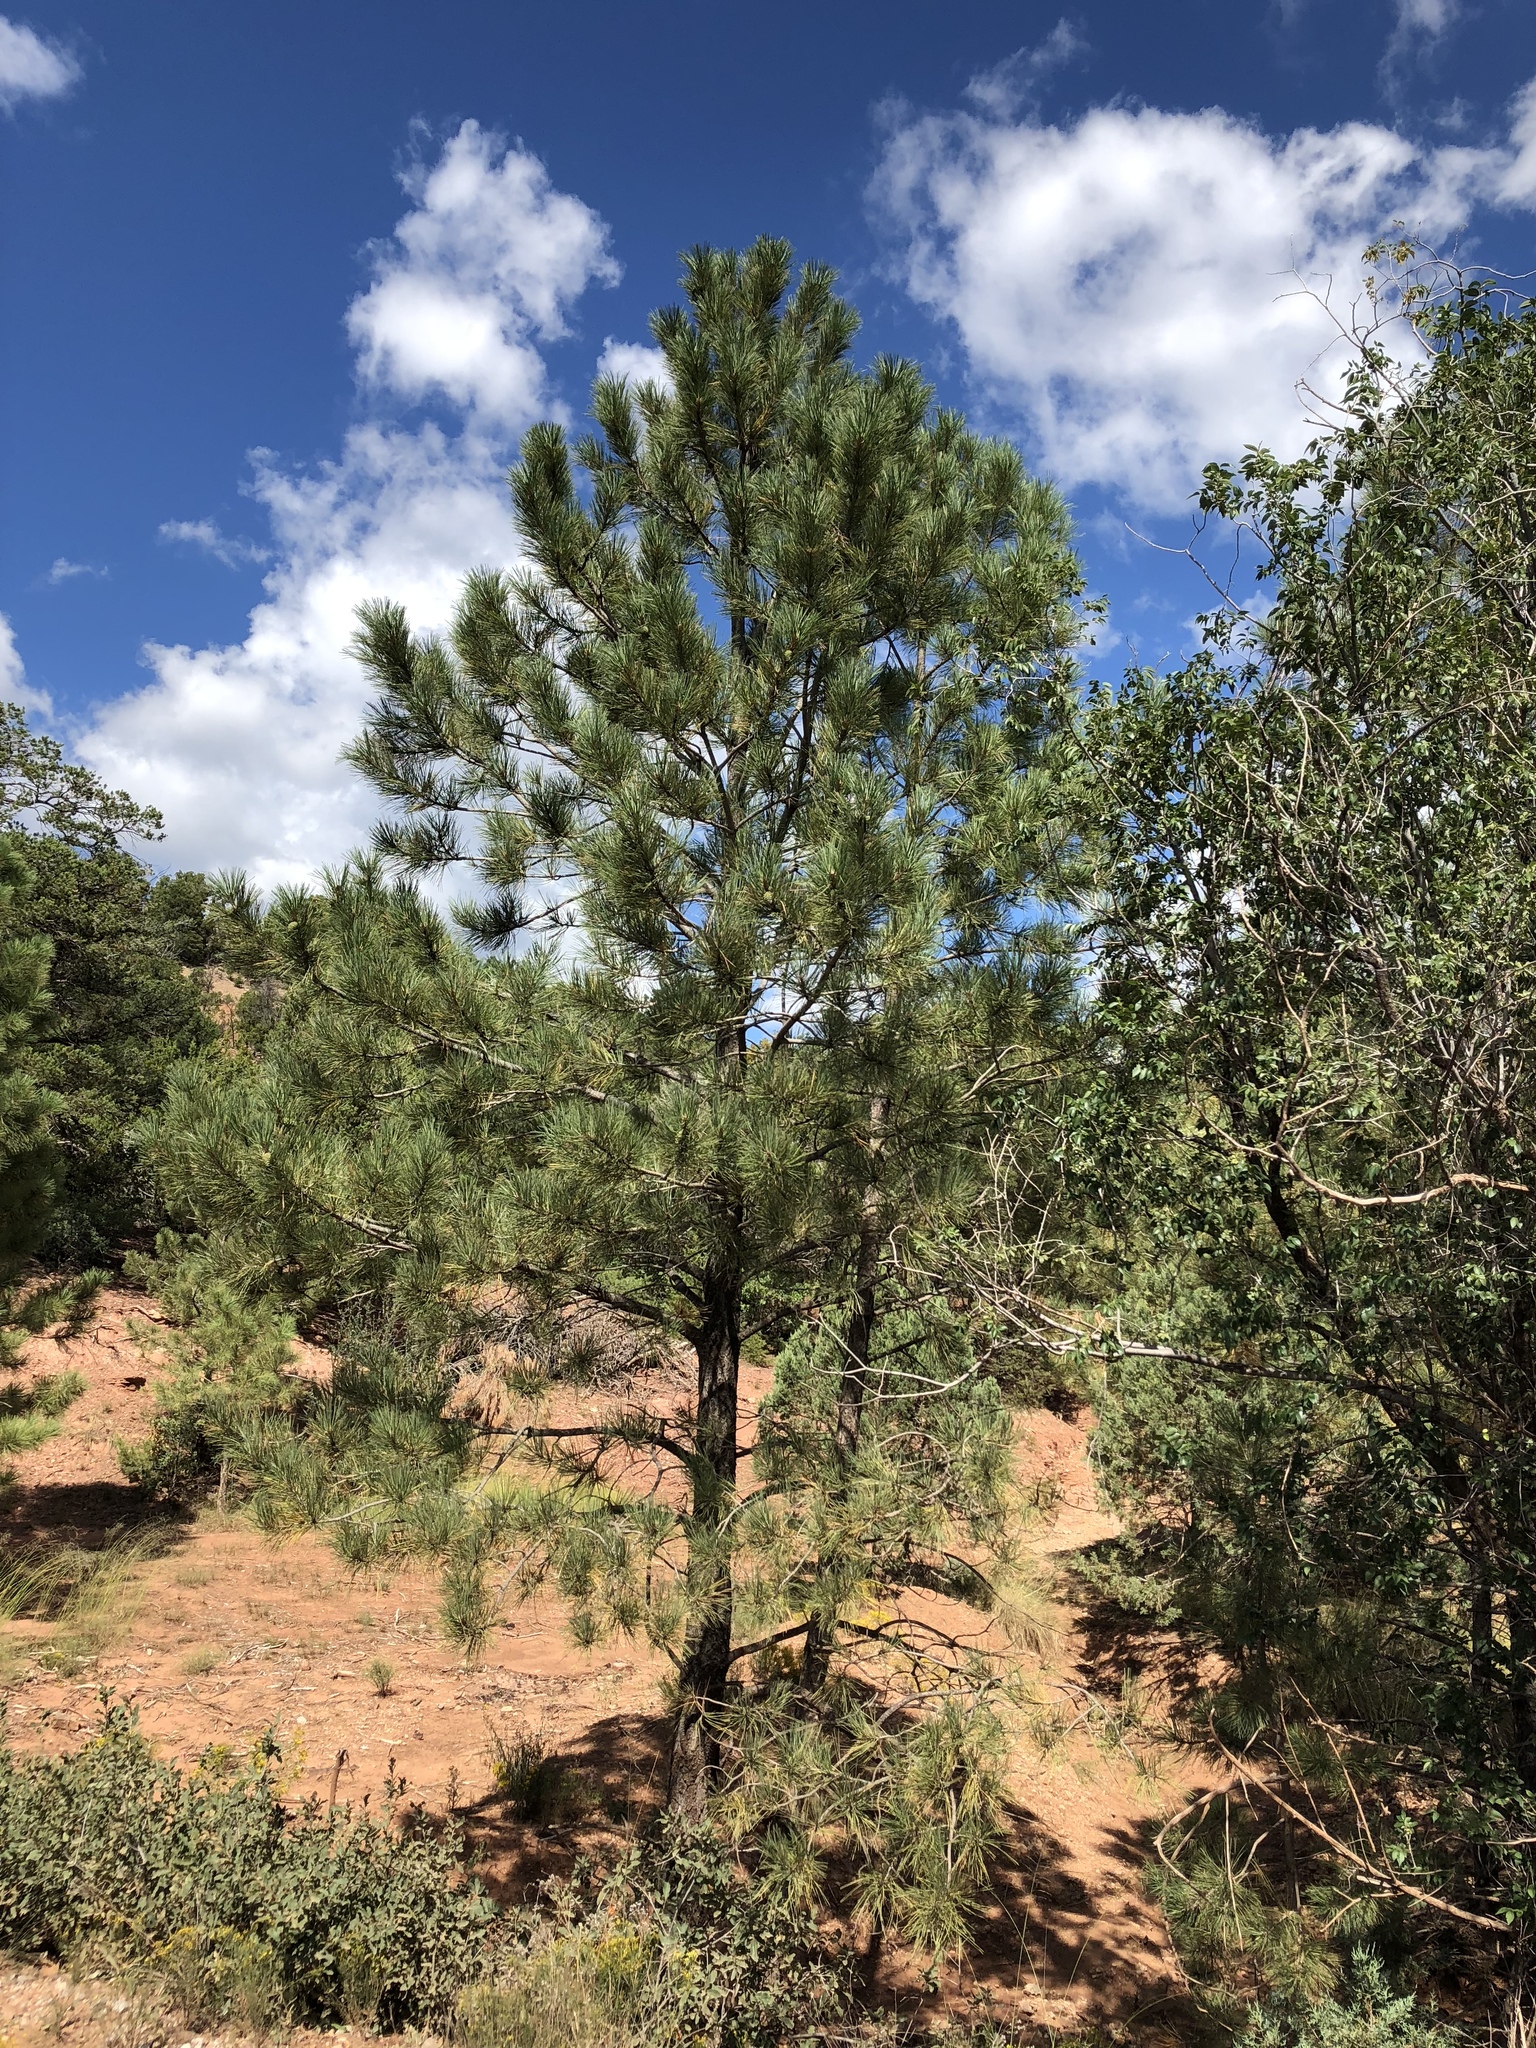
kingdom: Plantae
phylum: Tracheophyta
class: Pinopsida
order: Pinales
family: Pinaceae
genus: Pinus
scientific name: Pinus ponderosa
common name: Western yellow-pine
